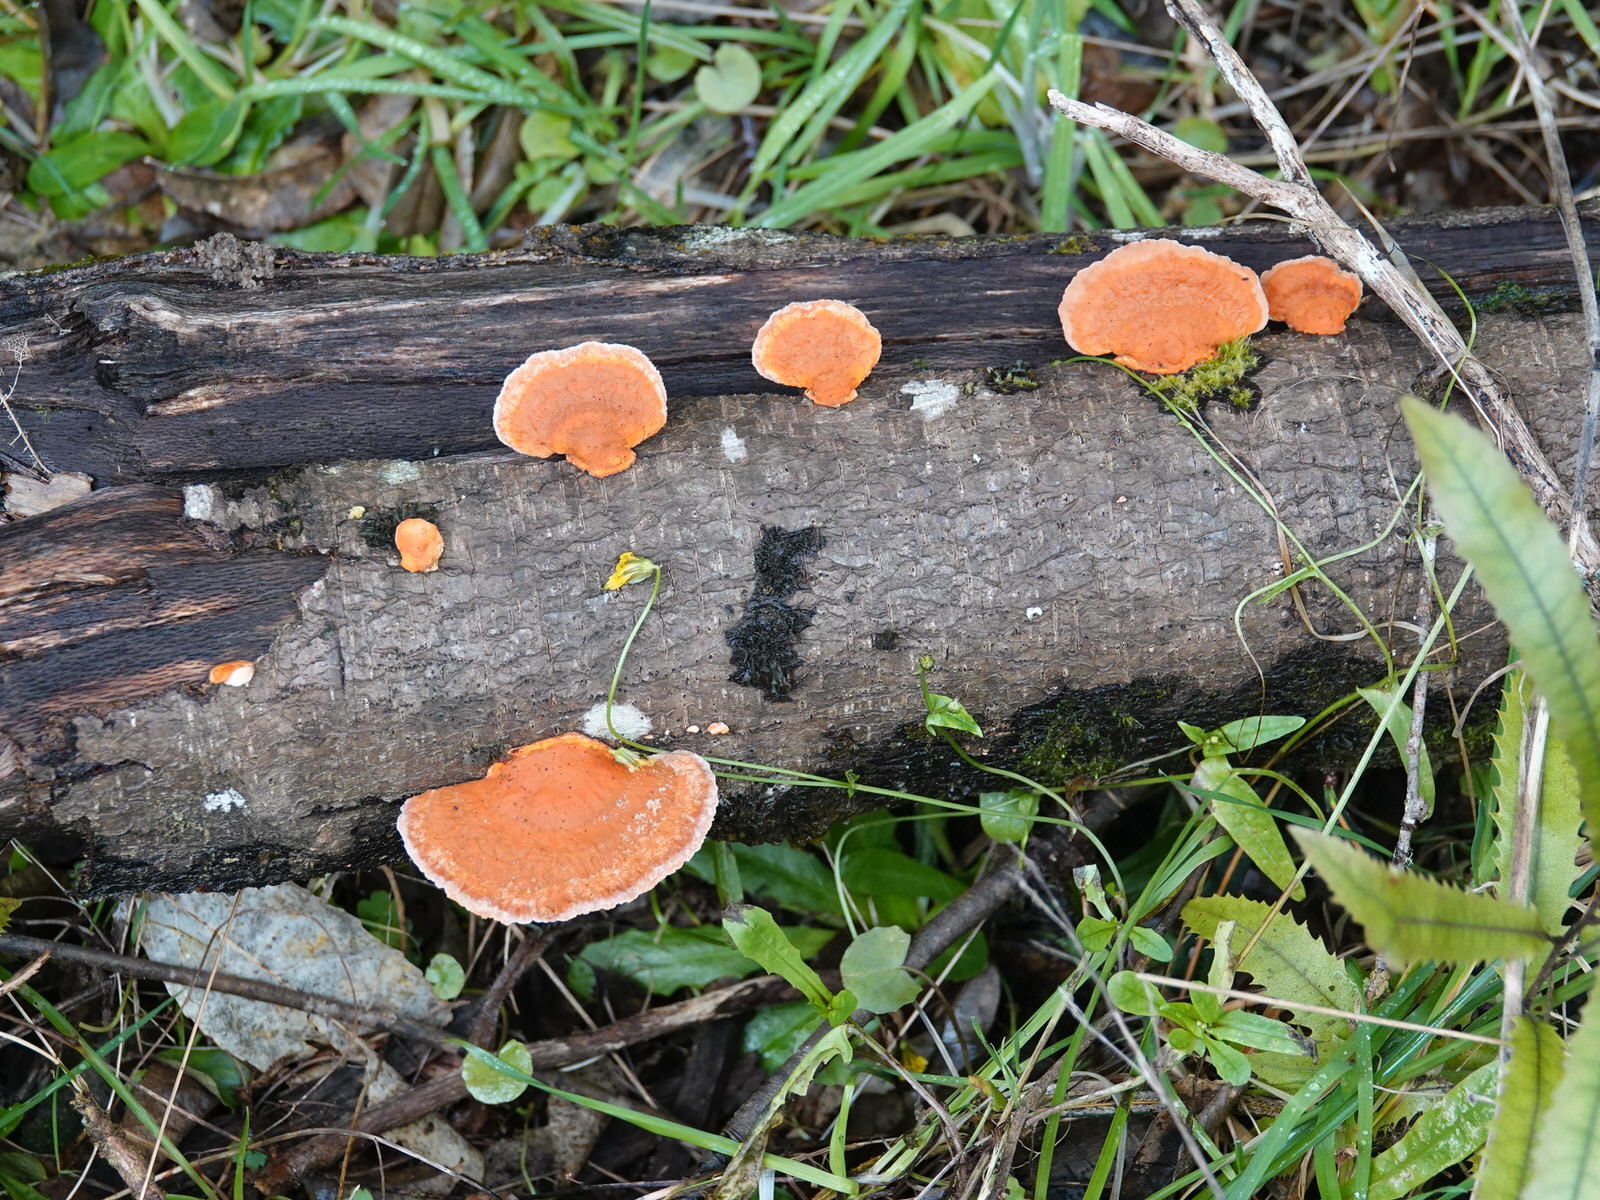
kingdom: Fungi
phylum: Basidiomycota
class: Agaricomycetes
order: Polyporales
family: Polyporaceae
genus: Trametes
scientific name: Trametes coccinea
